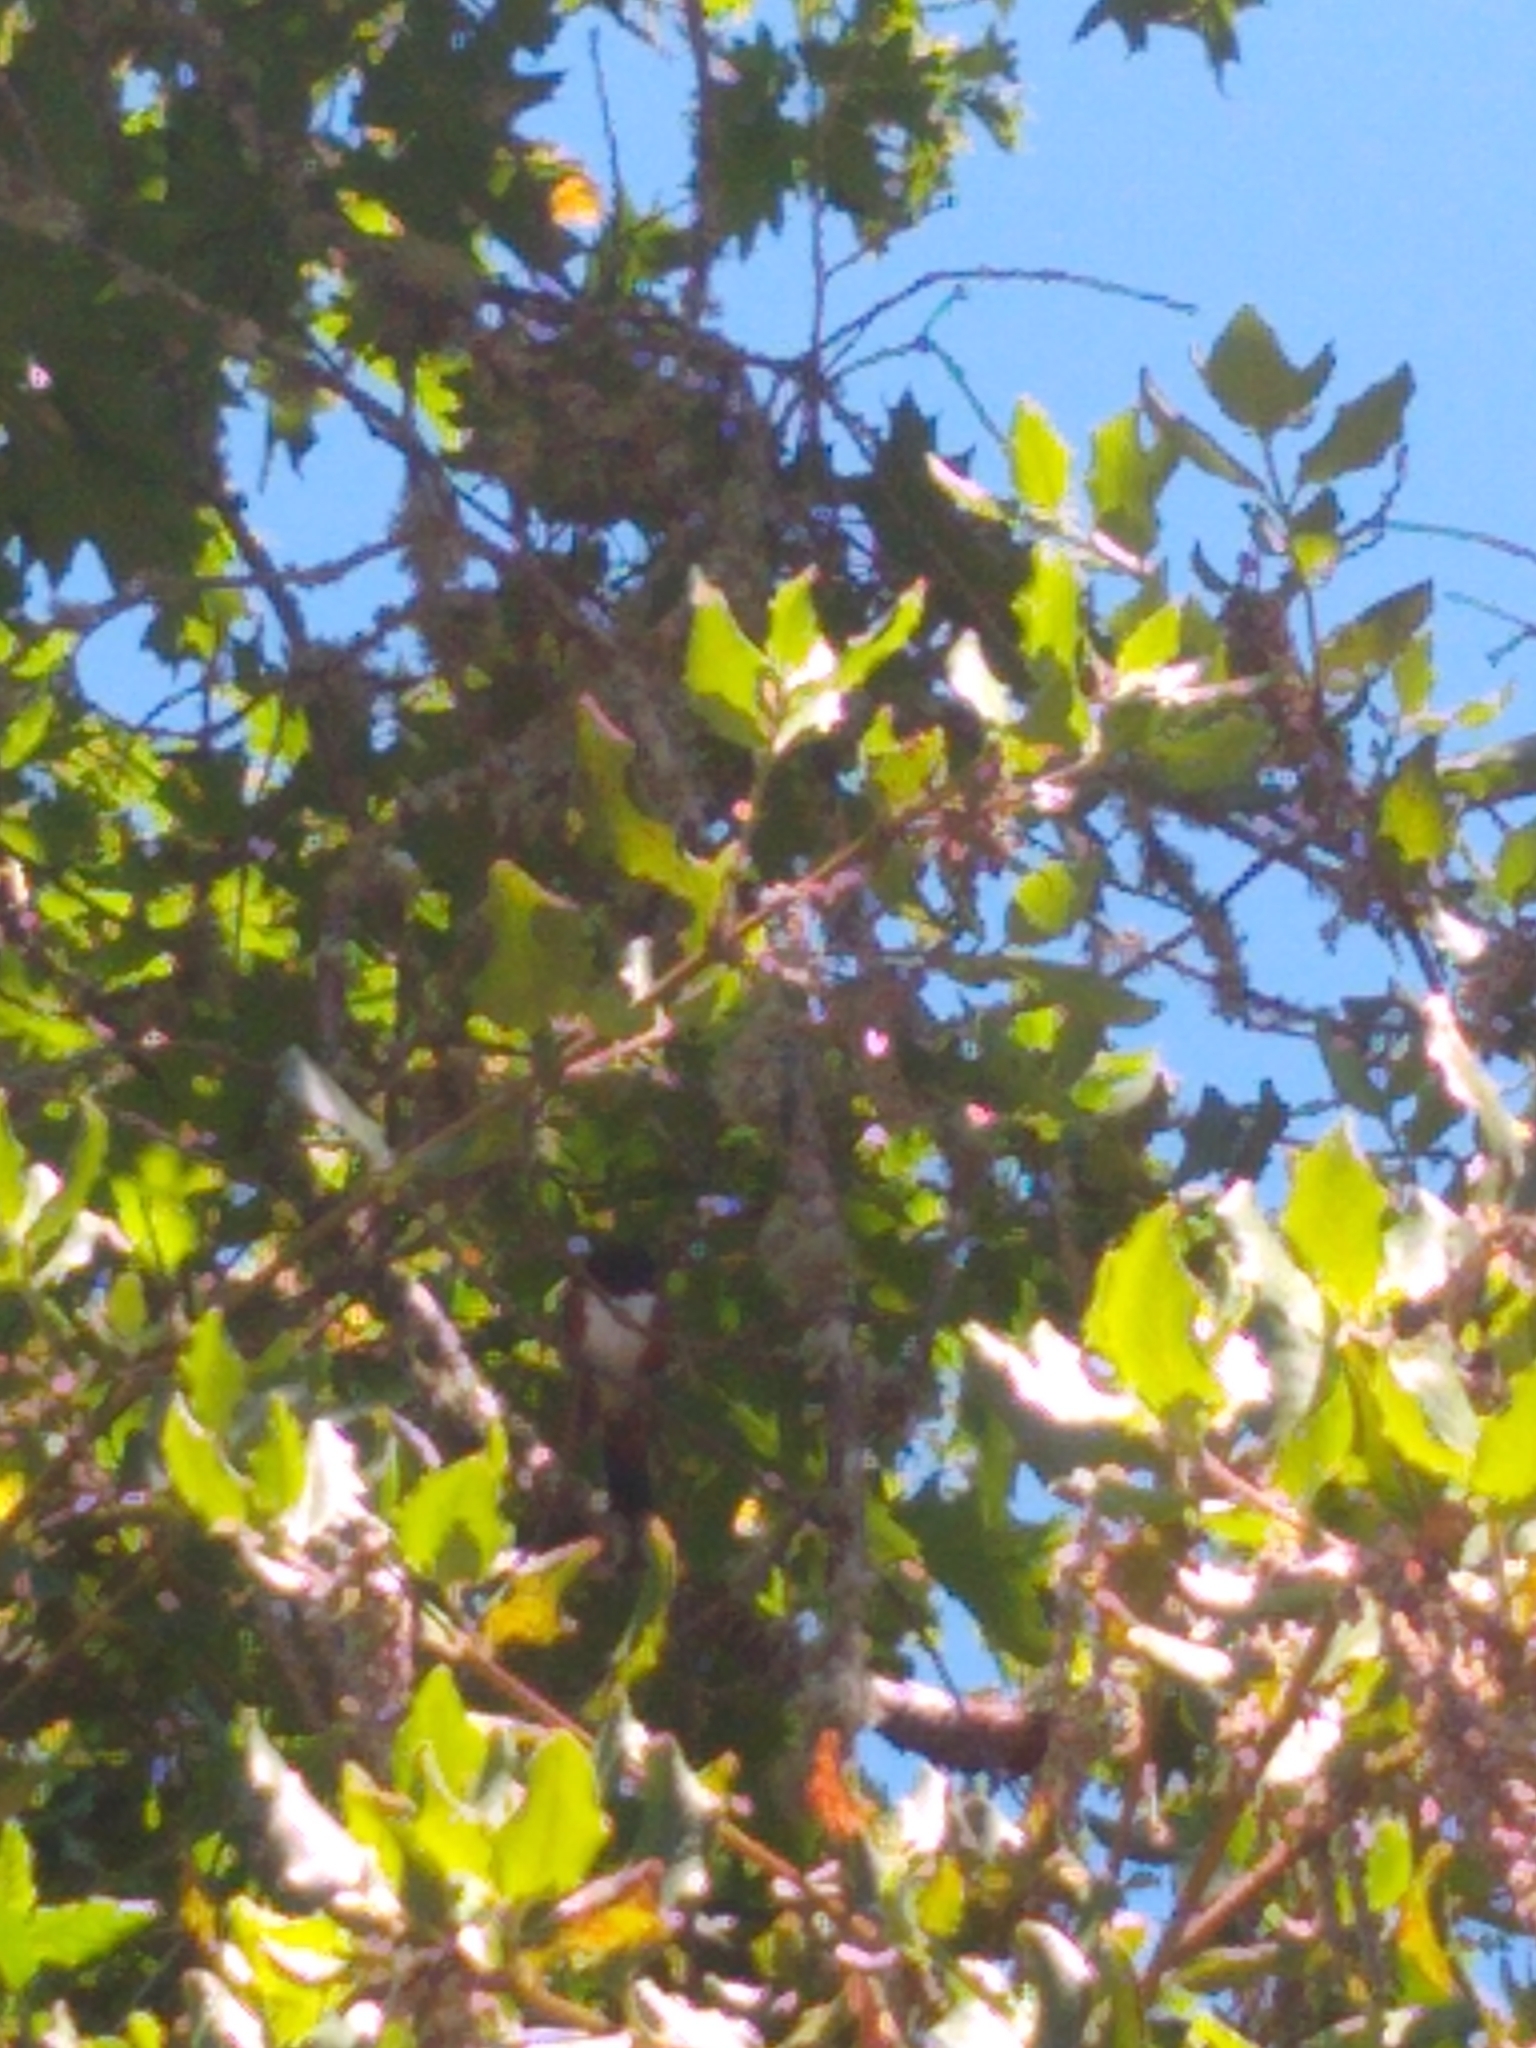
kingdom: Animalia
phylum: Chordata
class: Aves
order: Passeriformes
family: Passerellidae
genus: Pipilo
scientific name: Pipilo maculatus
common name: Spotted towhee
